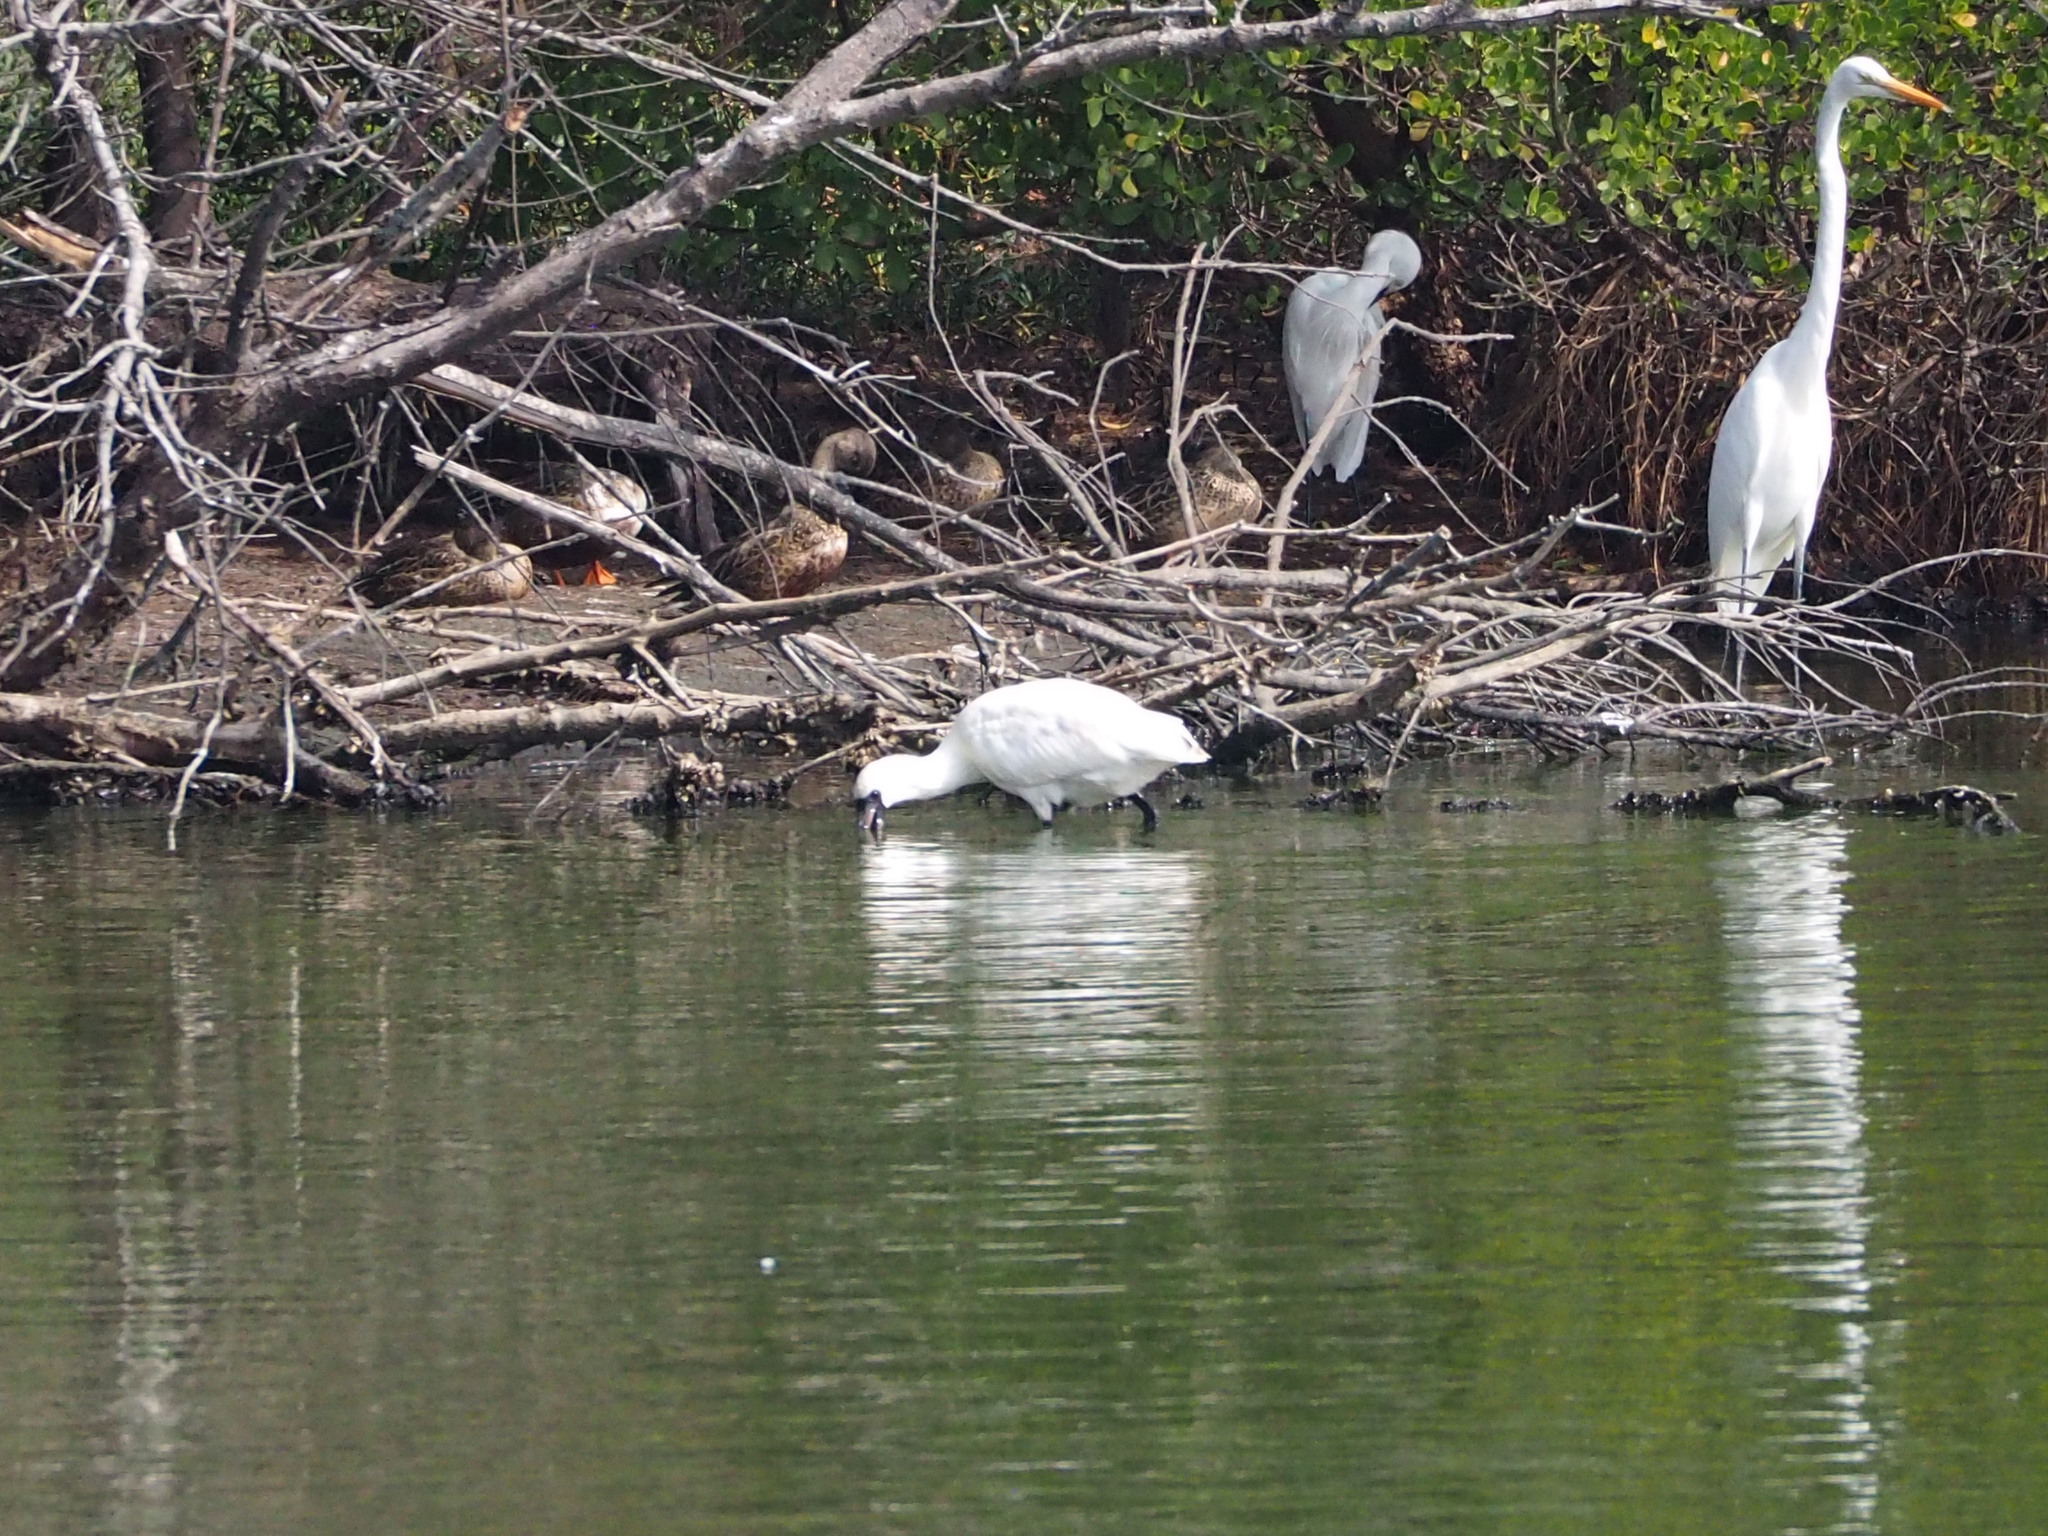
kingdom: Animalia
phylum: Chordata
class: Aves
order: Pelecaniformes
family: Threskiornithidae
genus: Platalea
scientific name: Platalea minor
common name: Black-faced spoonbill
